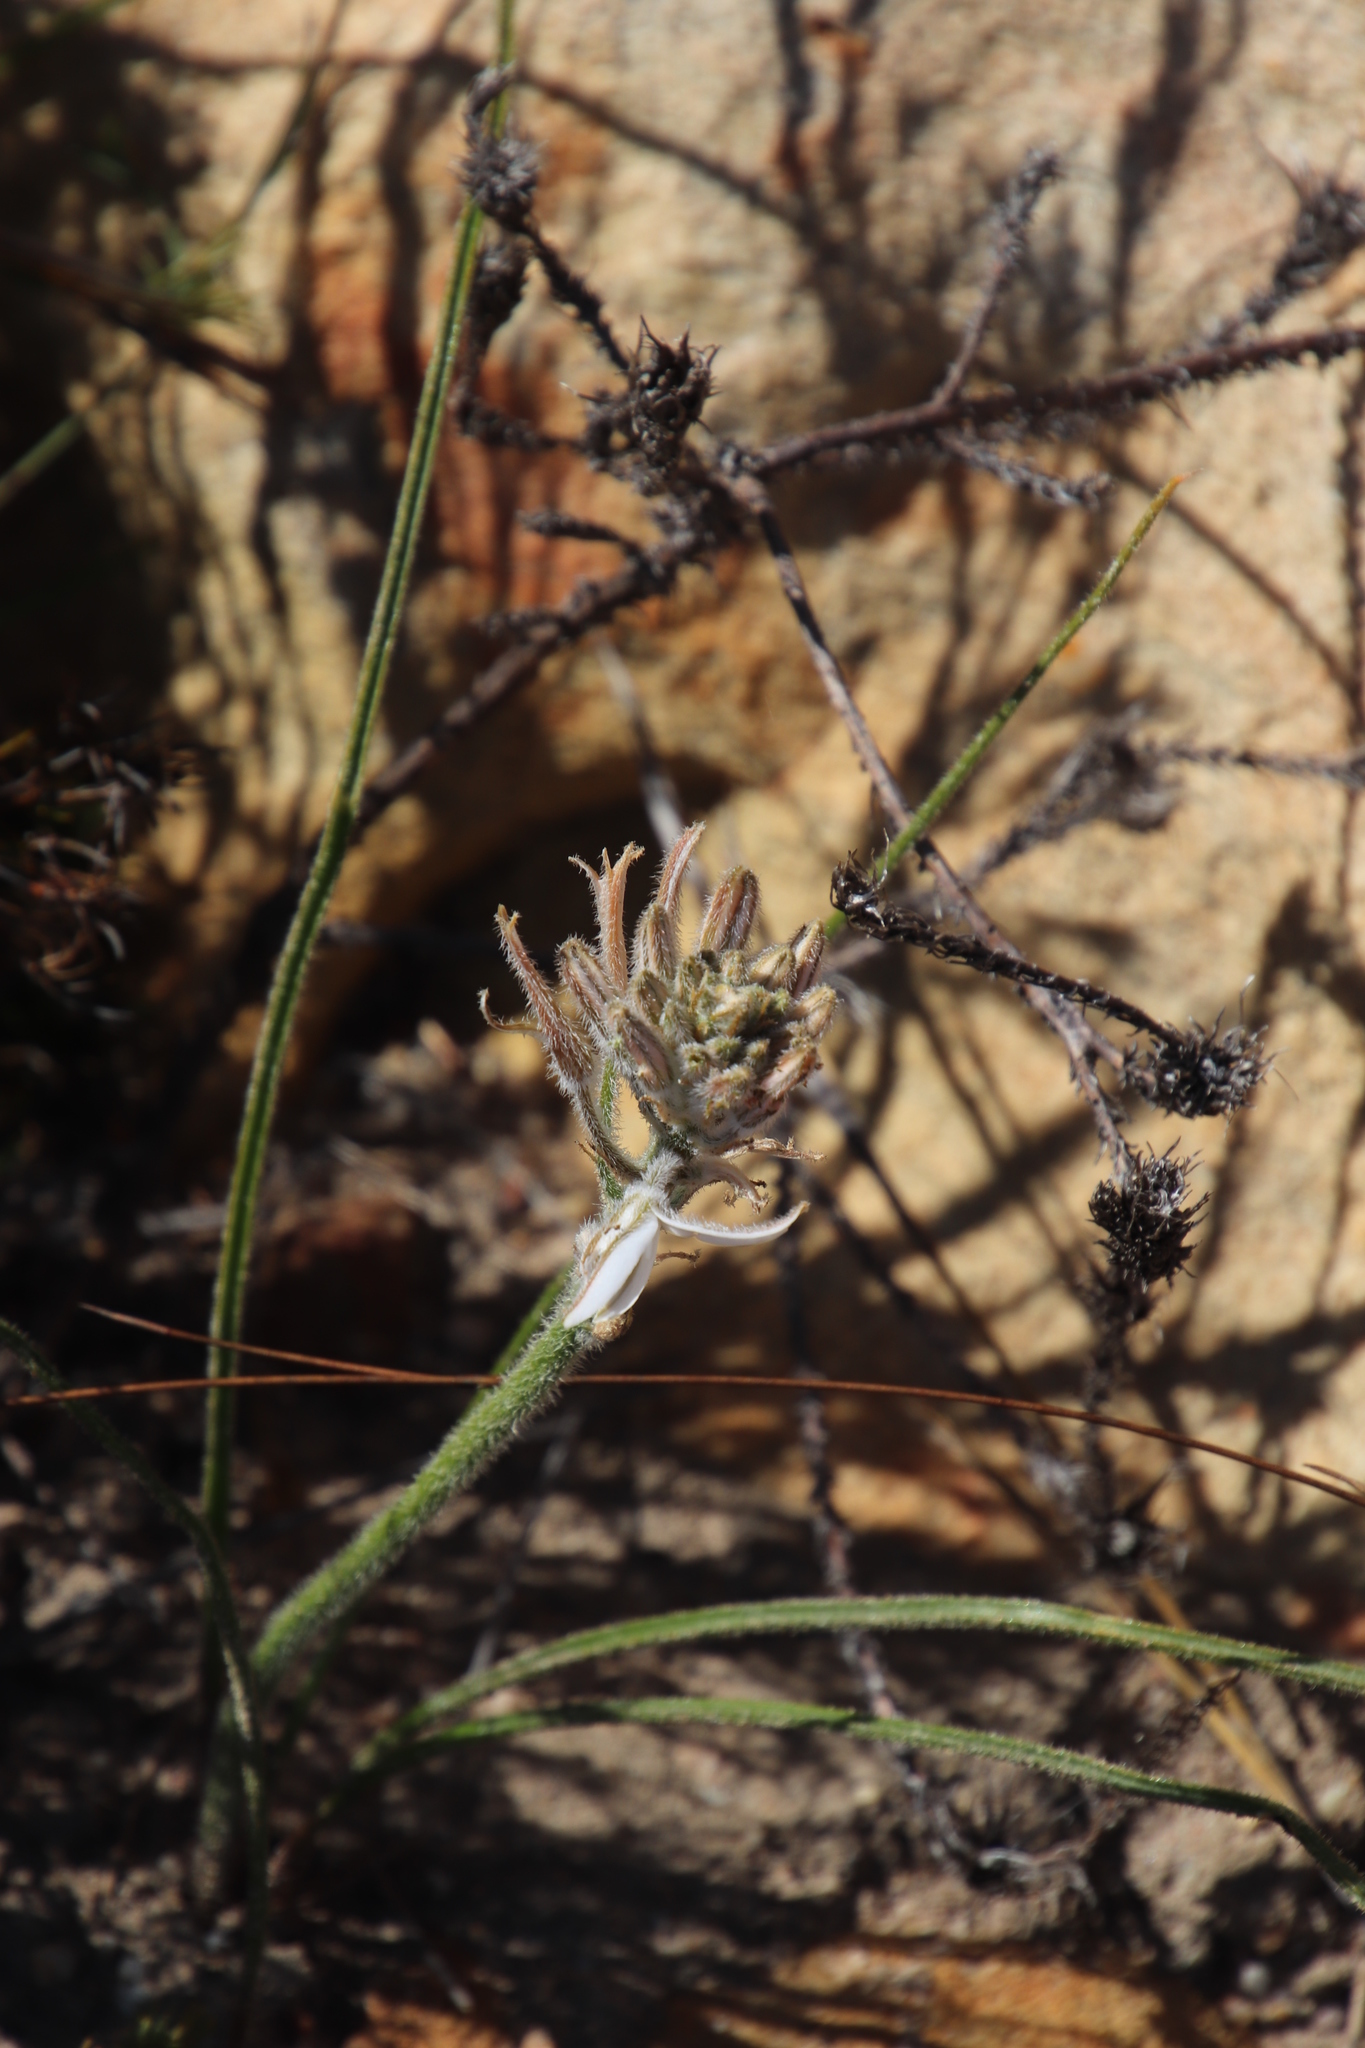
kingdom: Plantae
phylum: Tracheophyta
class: Liliopsida
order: Asparagales
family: Asphodelaceae
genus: Trachyandra
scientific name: Trachyandra scabra
